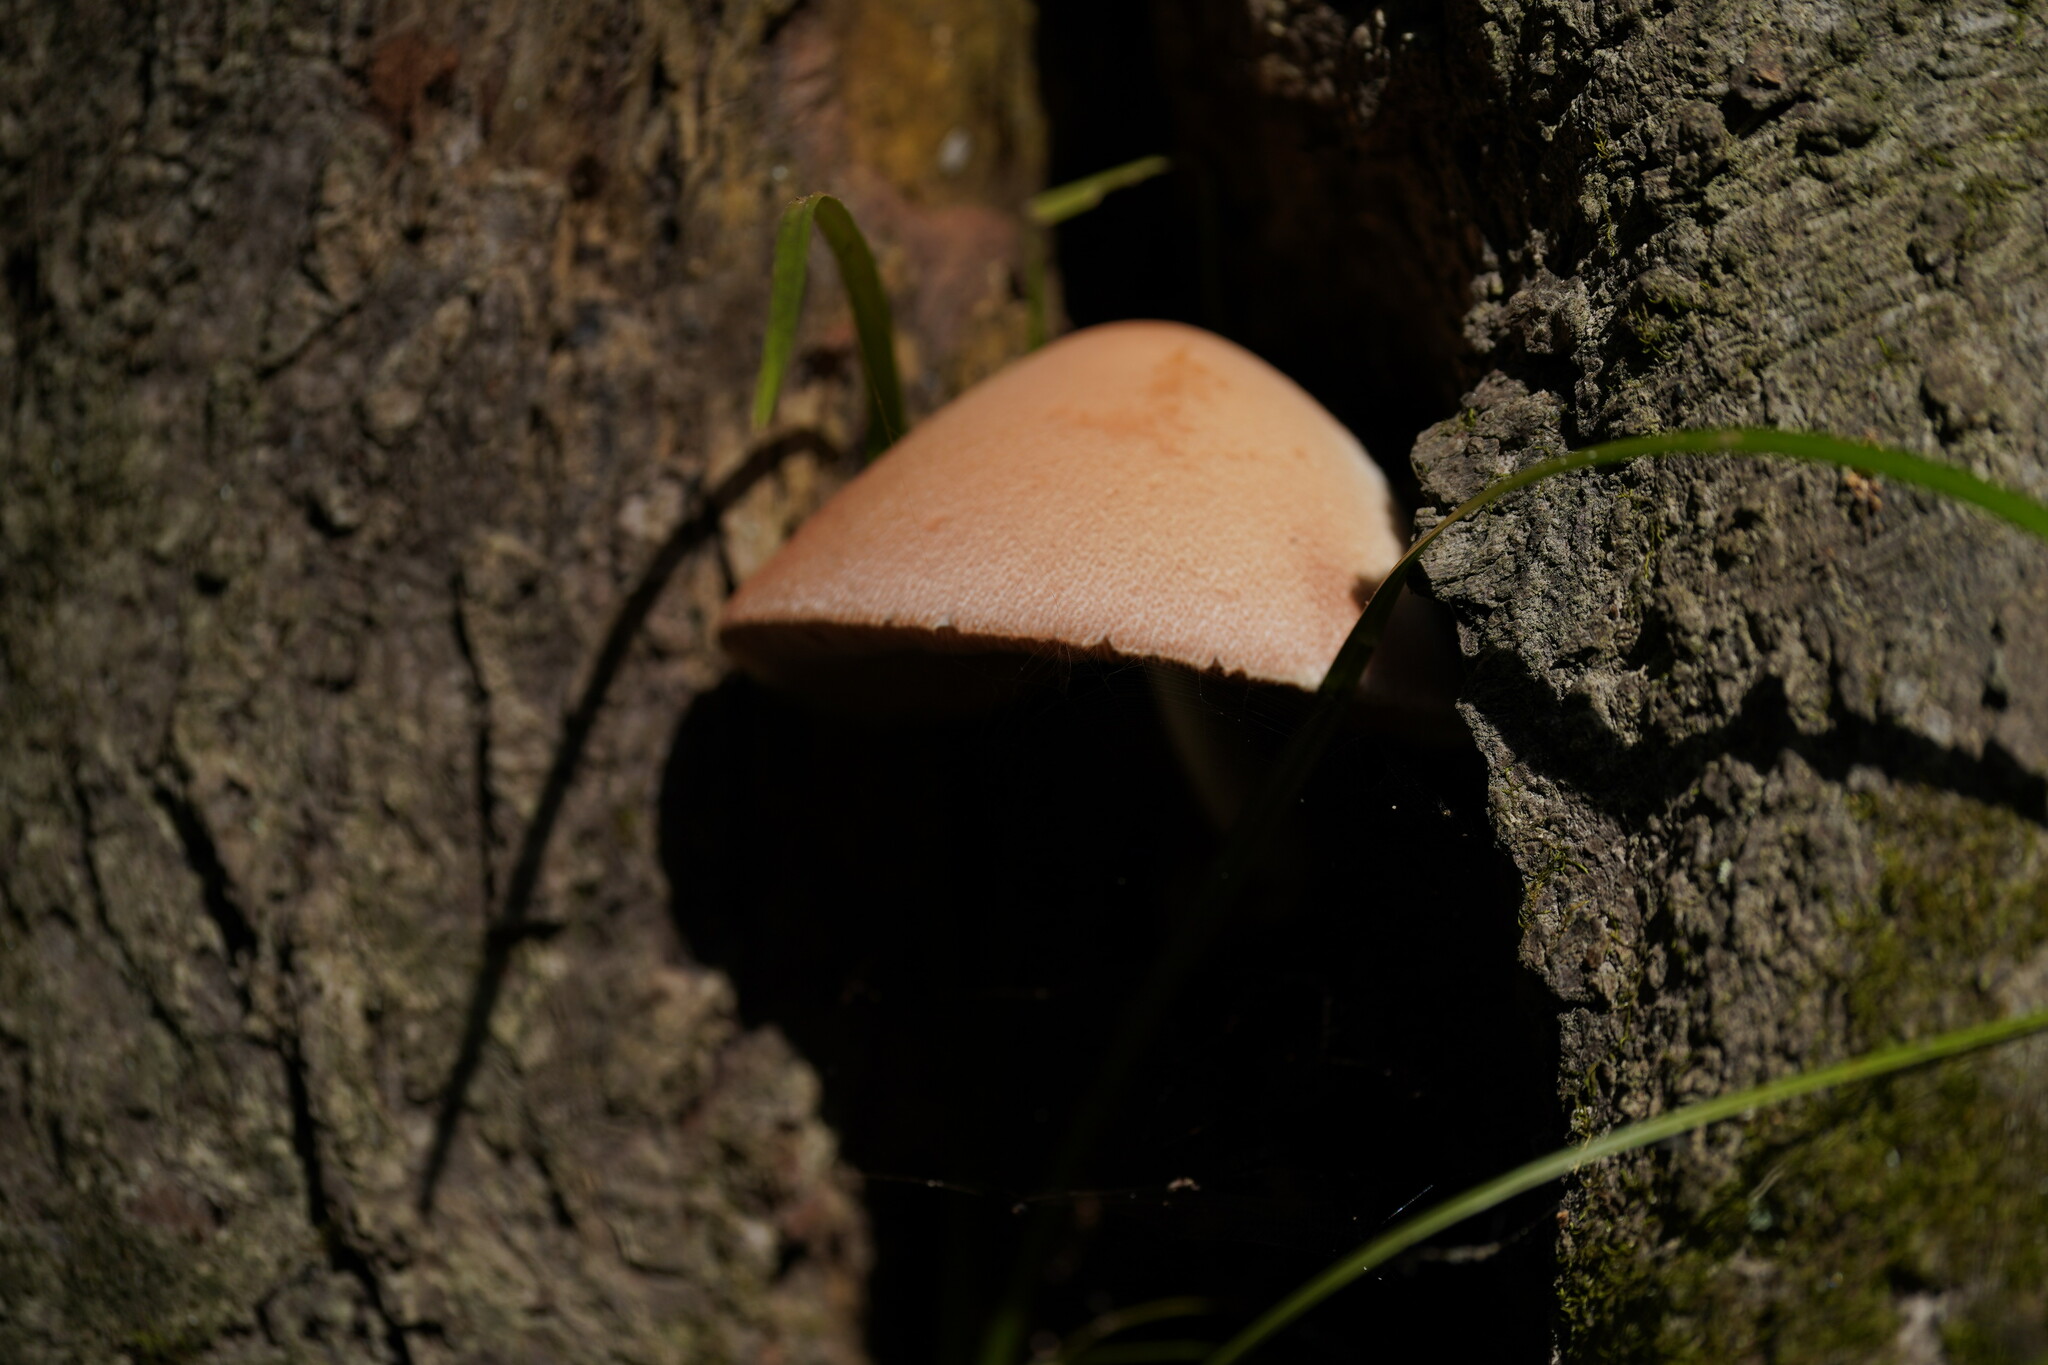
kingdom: Fungi
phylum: Basidiomycota
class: Agaricomycetes
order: Agaricales
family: Pluteaceae
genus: Volvariella
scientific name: Volvariella bombycina
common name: Silky rosegill
